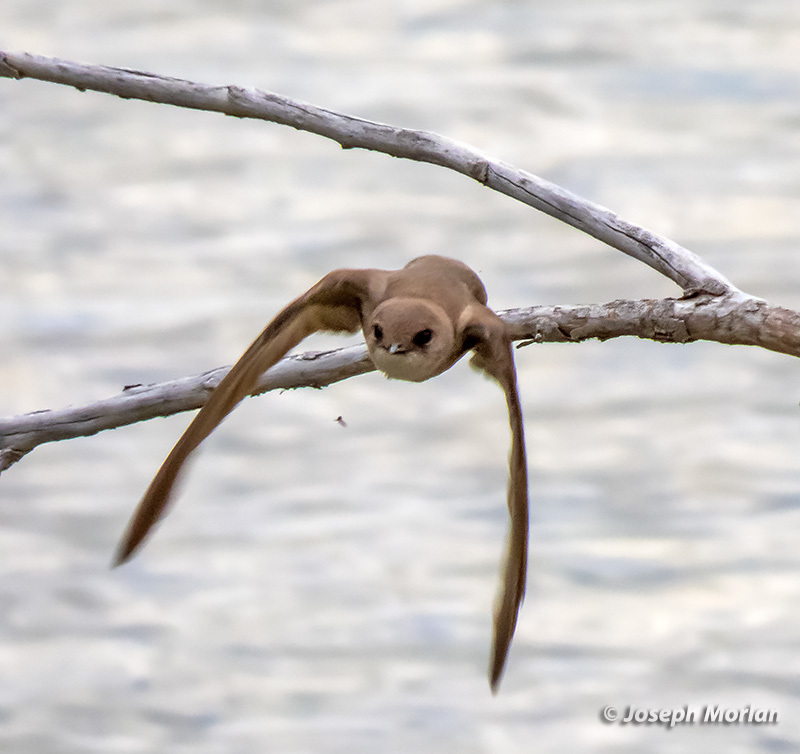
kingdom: Animalia
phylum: Chordata
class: Aves
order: Passeriformes
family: Hirundinidae
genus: Stelgidopteryx
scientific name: Stelgidopteryx serripennis
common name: Northern rough-winged swallow
